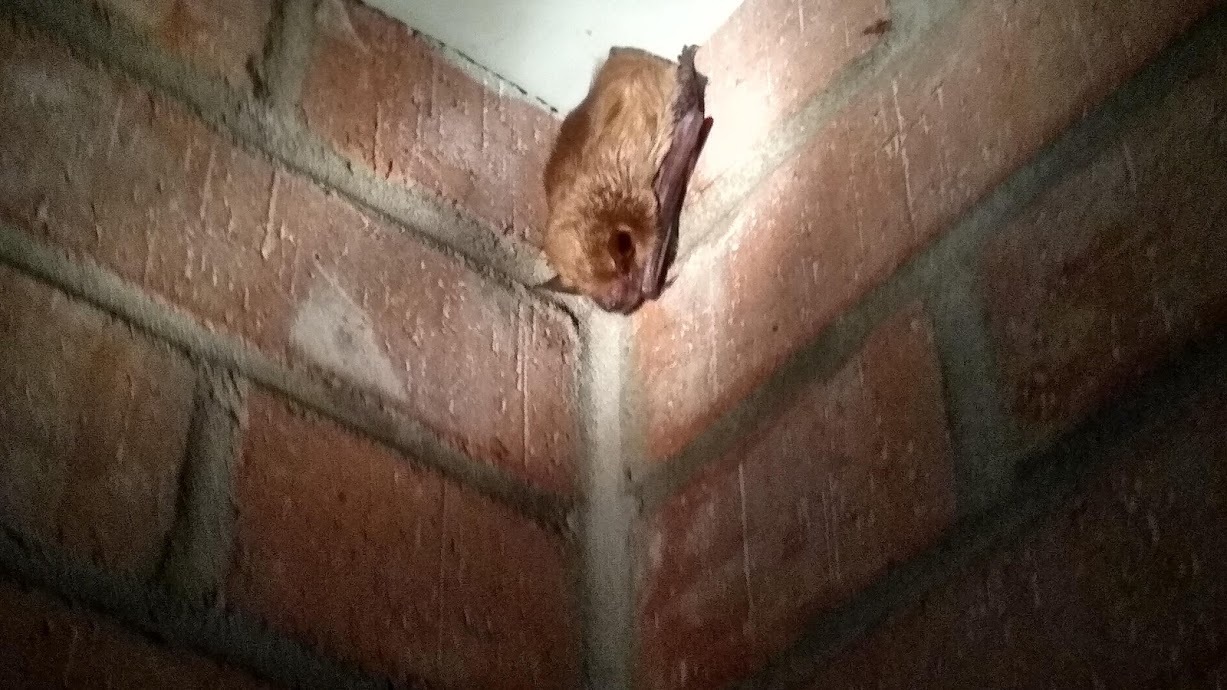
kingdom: Animalia
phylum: Chordata
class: Mammalia
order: Chiroptera
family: Vespertilionidae
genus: Eptesicus
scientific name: Eptesicus fuscus
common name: Big brown bat
